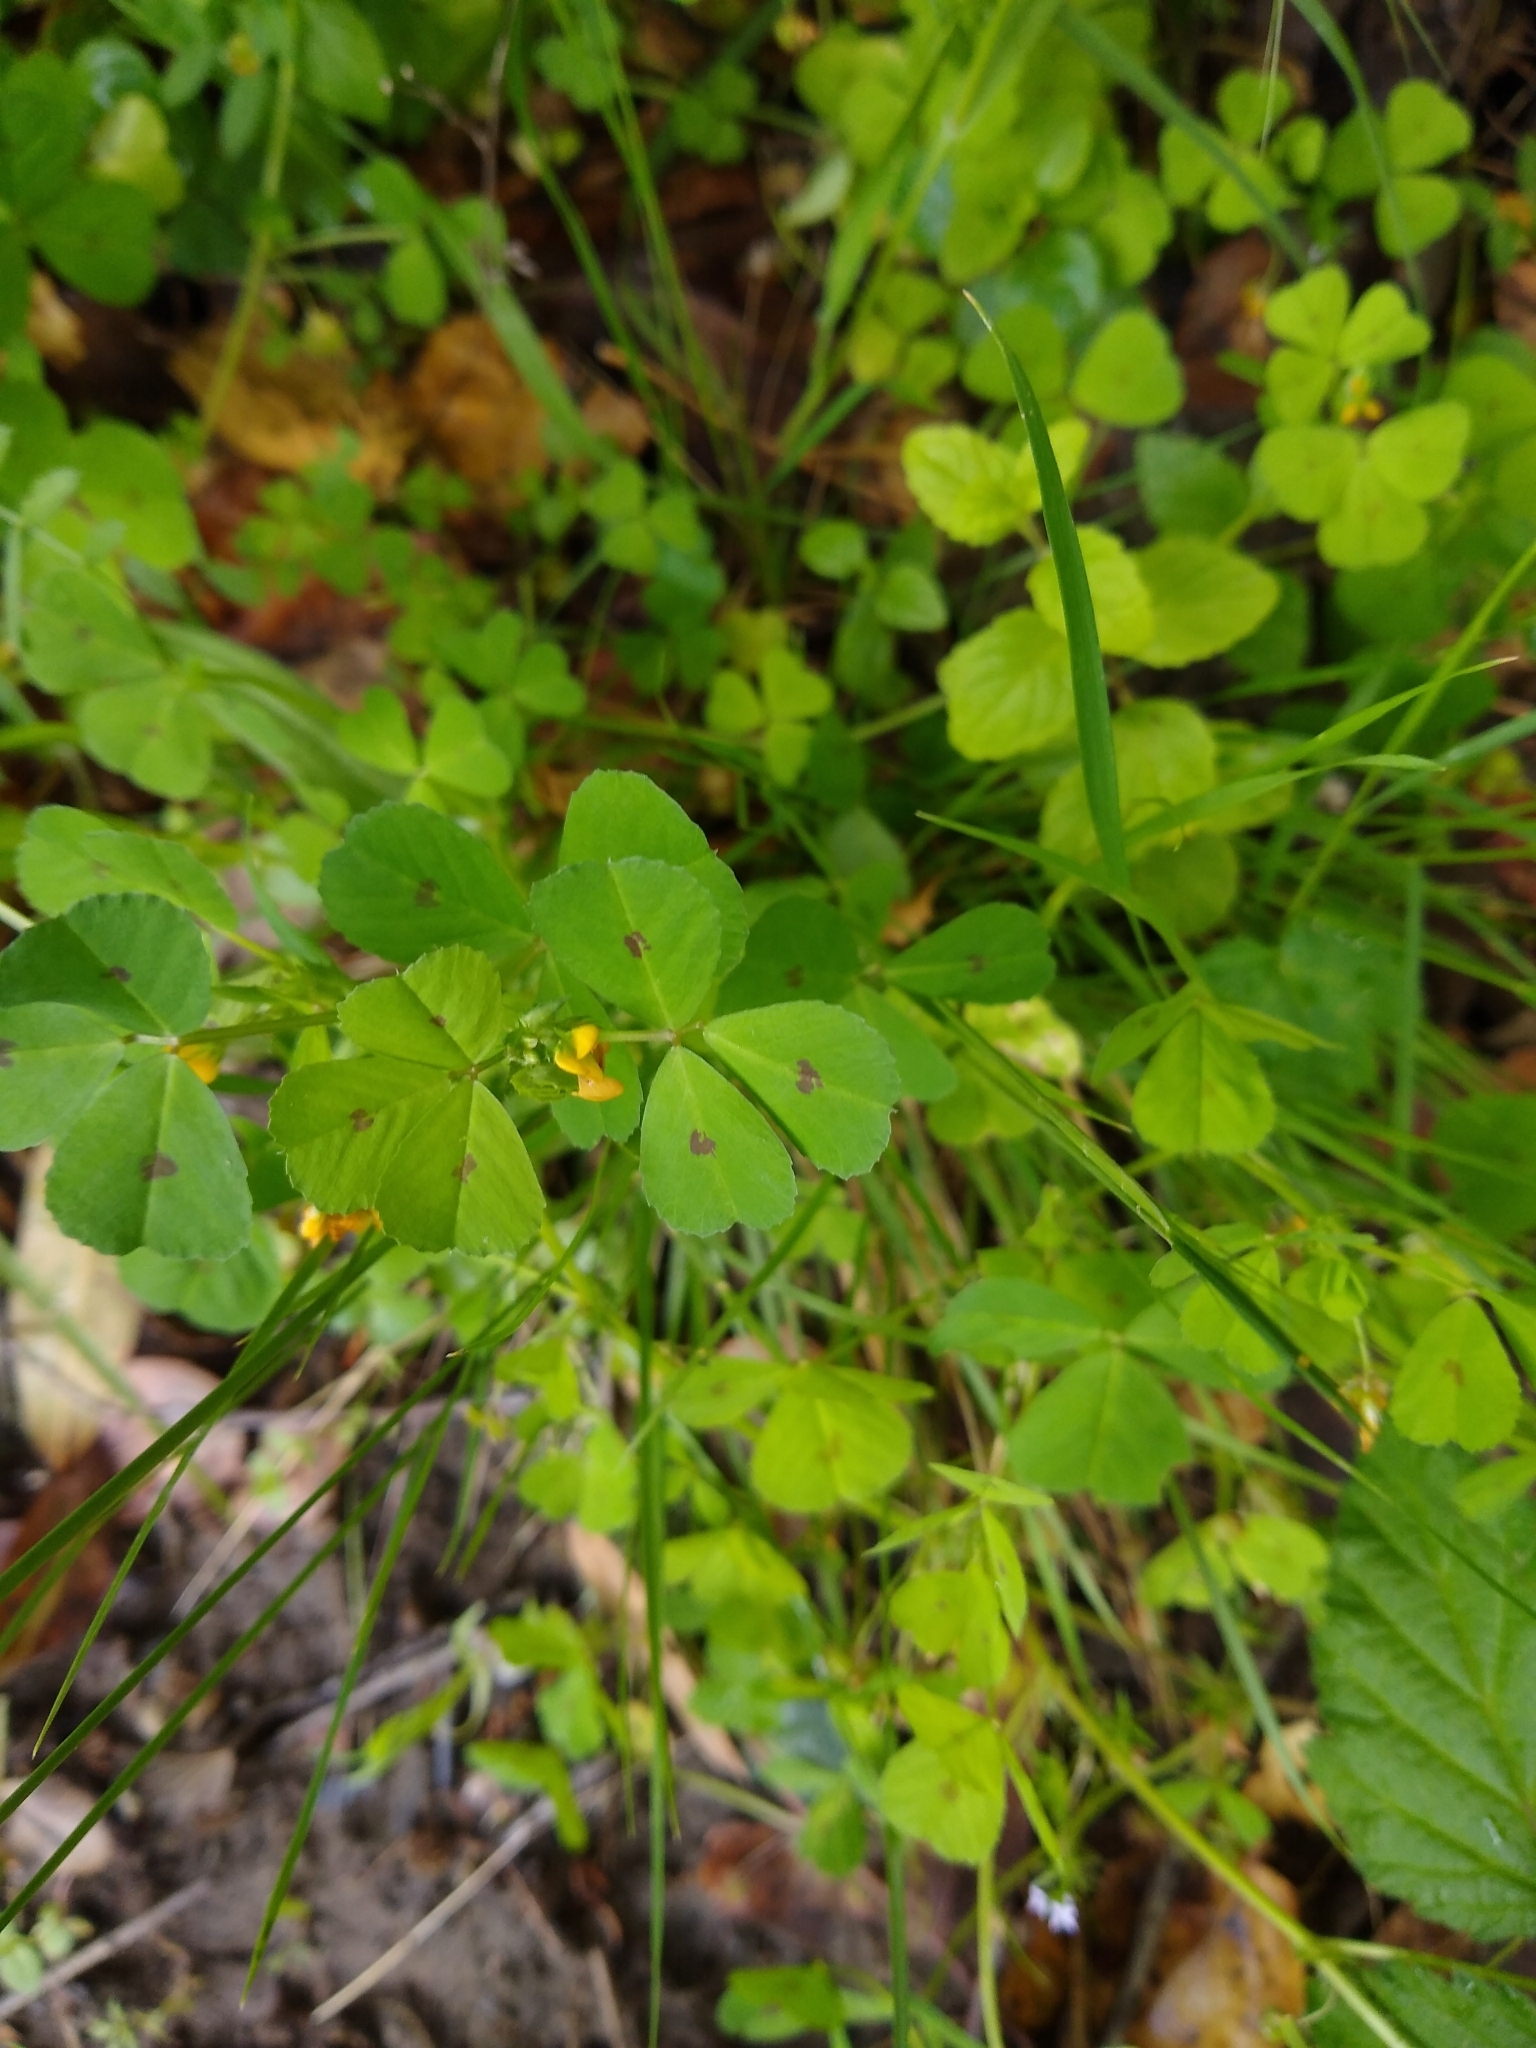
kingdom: Plantae
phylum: Tracheophyta
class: Magnoliopsida
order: Fabales
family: Fabaceae
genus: Medicago
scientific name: Medicago arabica
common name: Spotted medick
